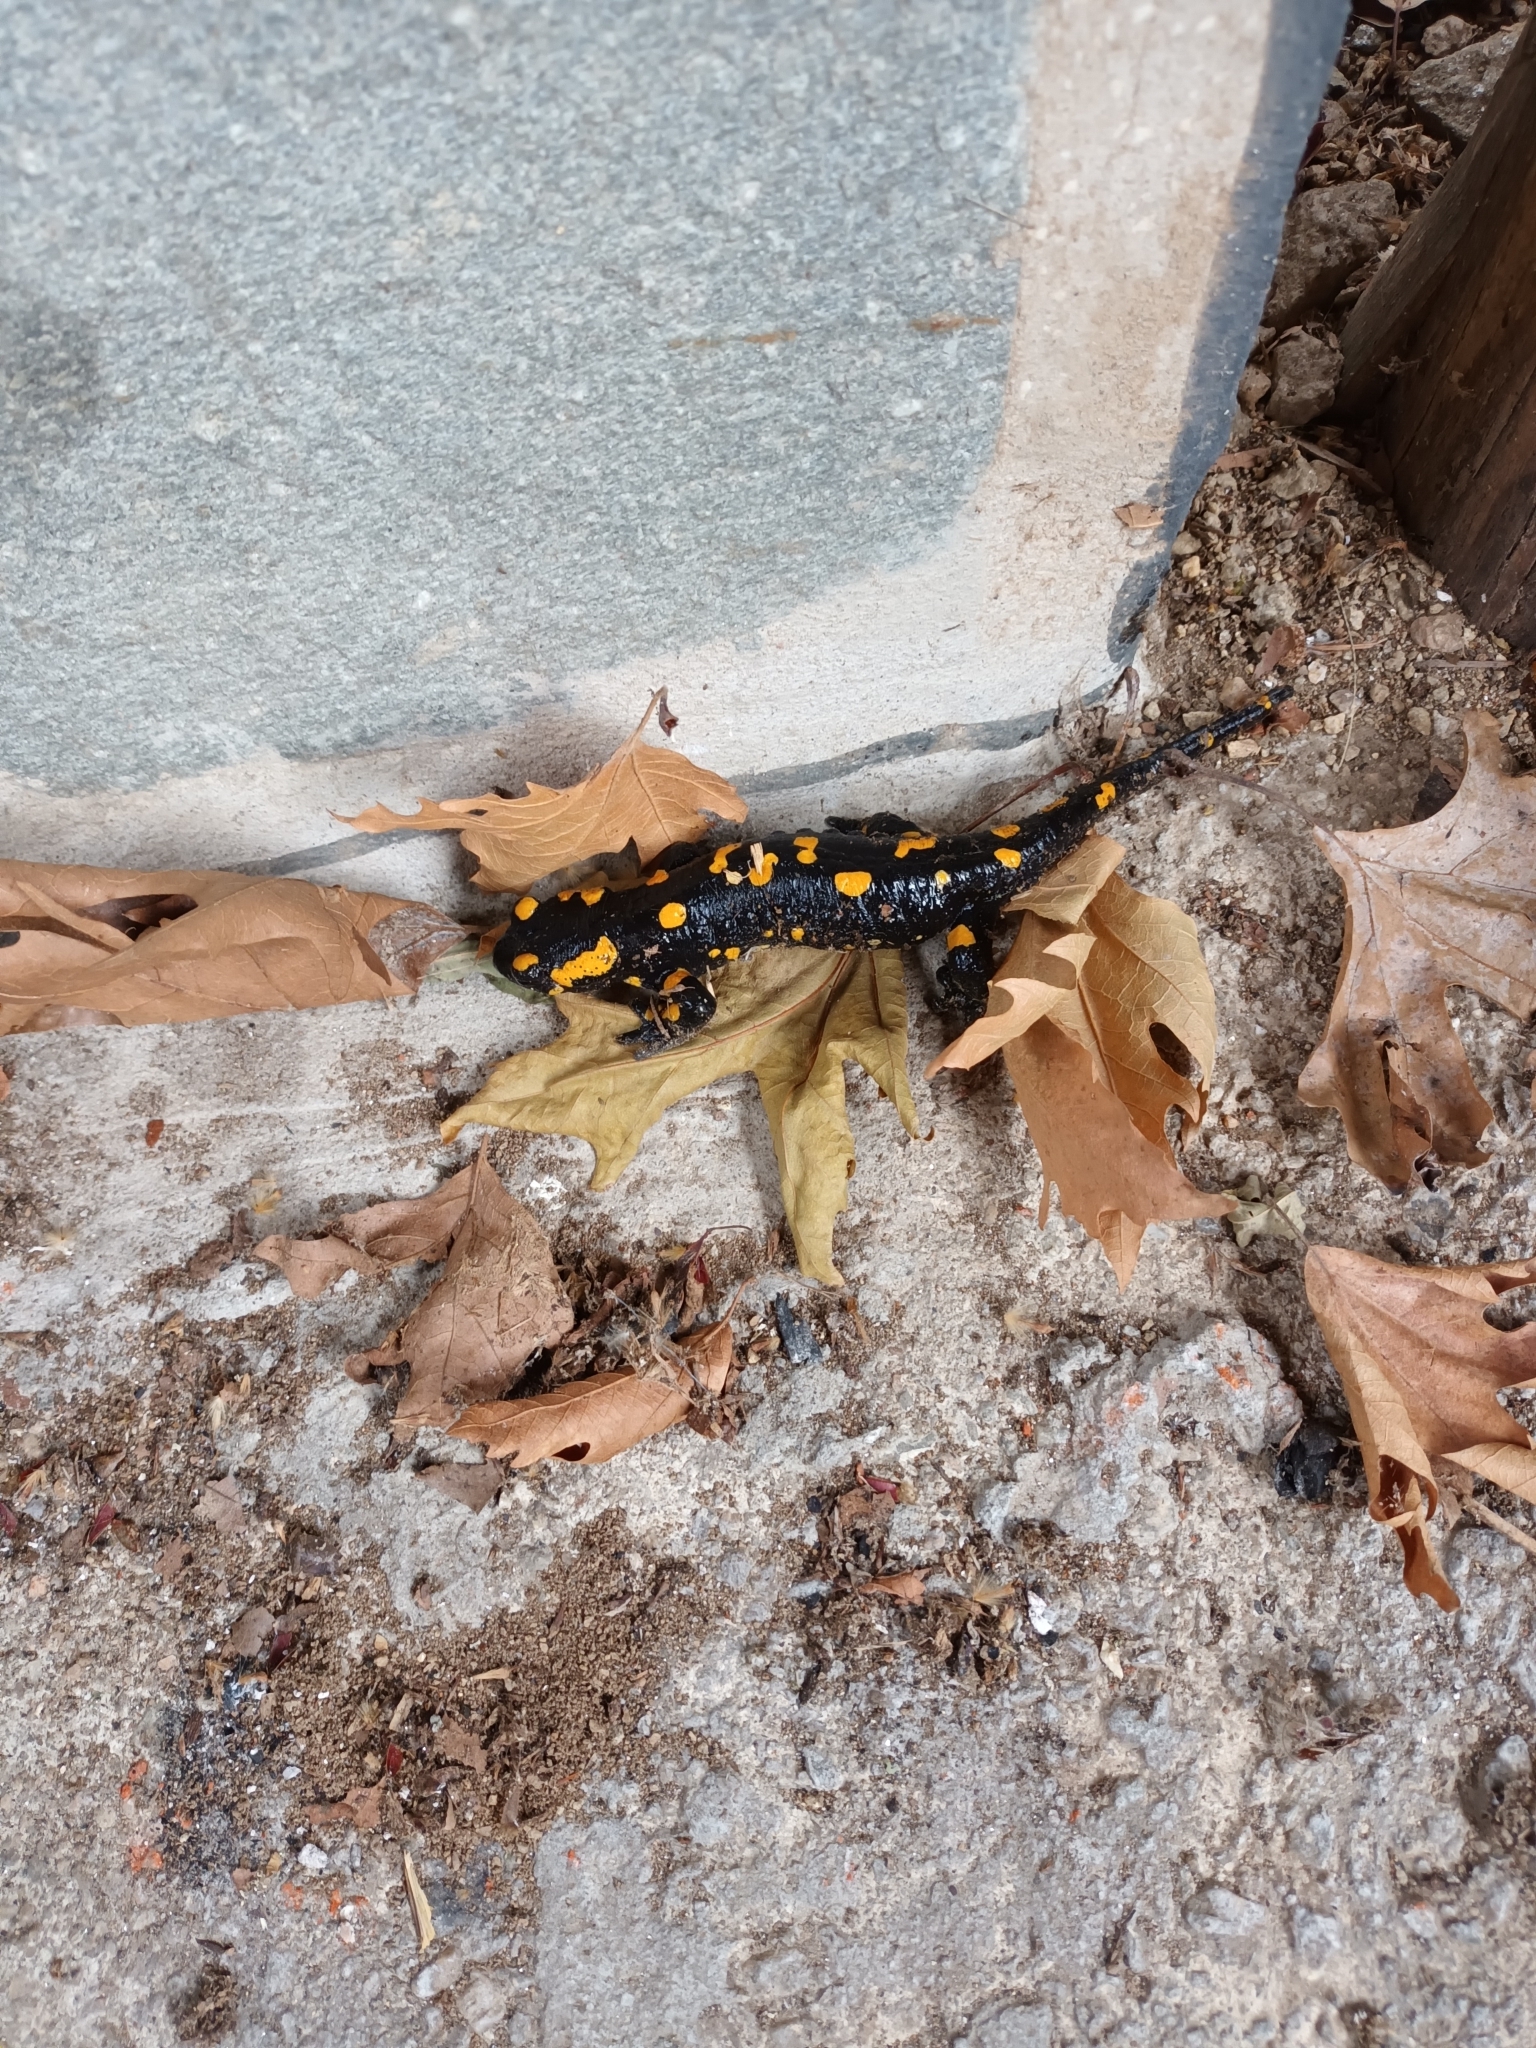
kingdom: Animalia
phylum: Chordata
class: Amphibia
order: Caudata
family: Salamandridae
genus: Salamandra
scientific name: Salamandra salamandra
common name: Fire salamander
